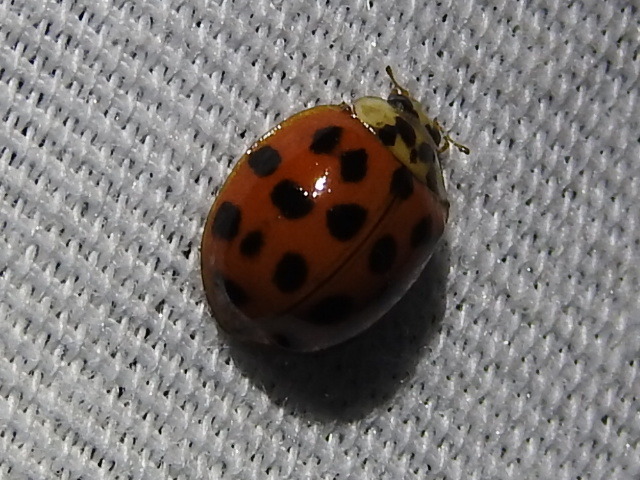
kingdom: Animalia
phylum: Arthropoda
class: Insecta
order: Coleoptera
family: Coccinellidae
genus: Harmonia
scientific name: Harmonia axyridis
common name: Harlequin ladybird
